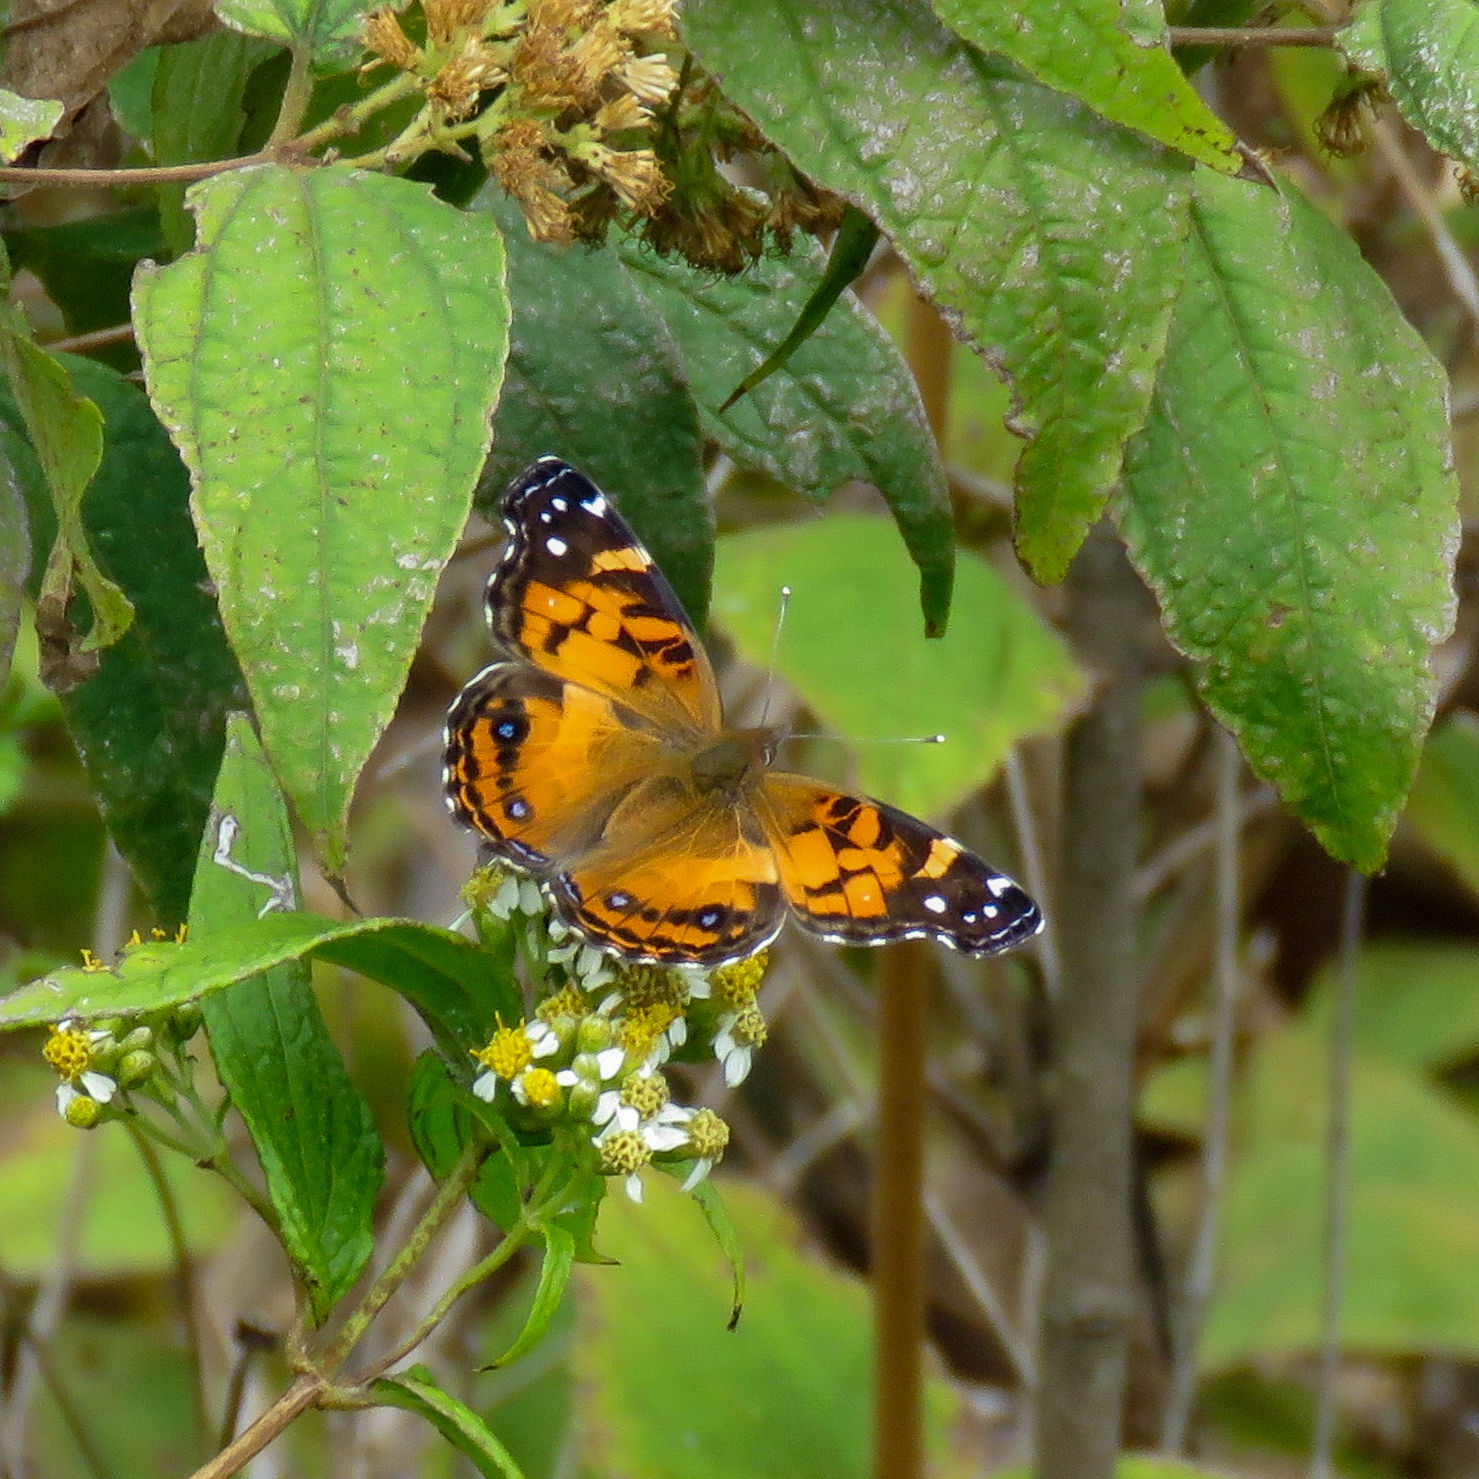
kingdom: Animalia
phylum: Arthropoda
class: Insecta
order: Lepidoptera
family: Nymphalidae
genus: Vanessa
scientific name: Vanessa virginiensis
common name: American lady
